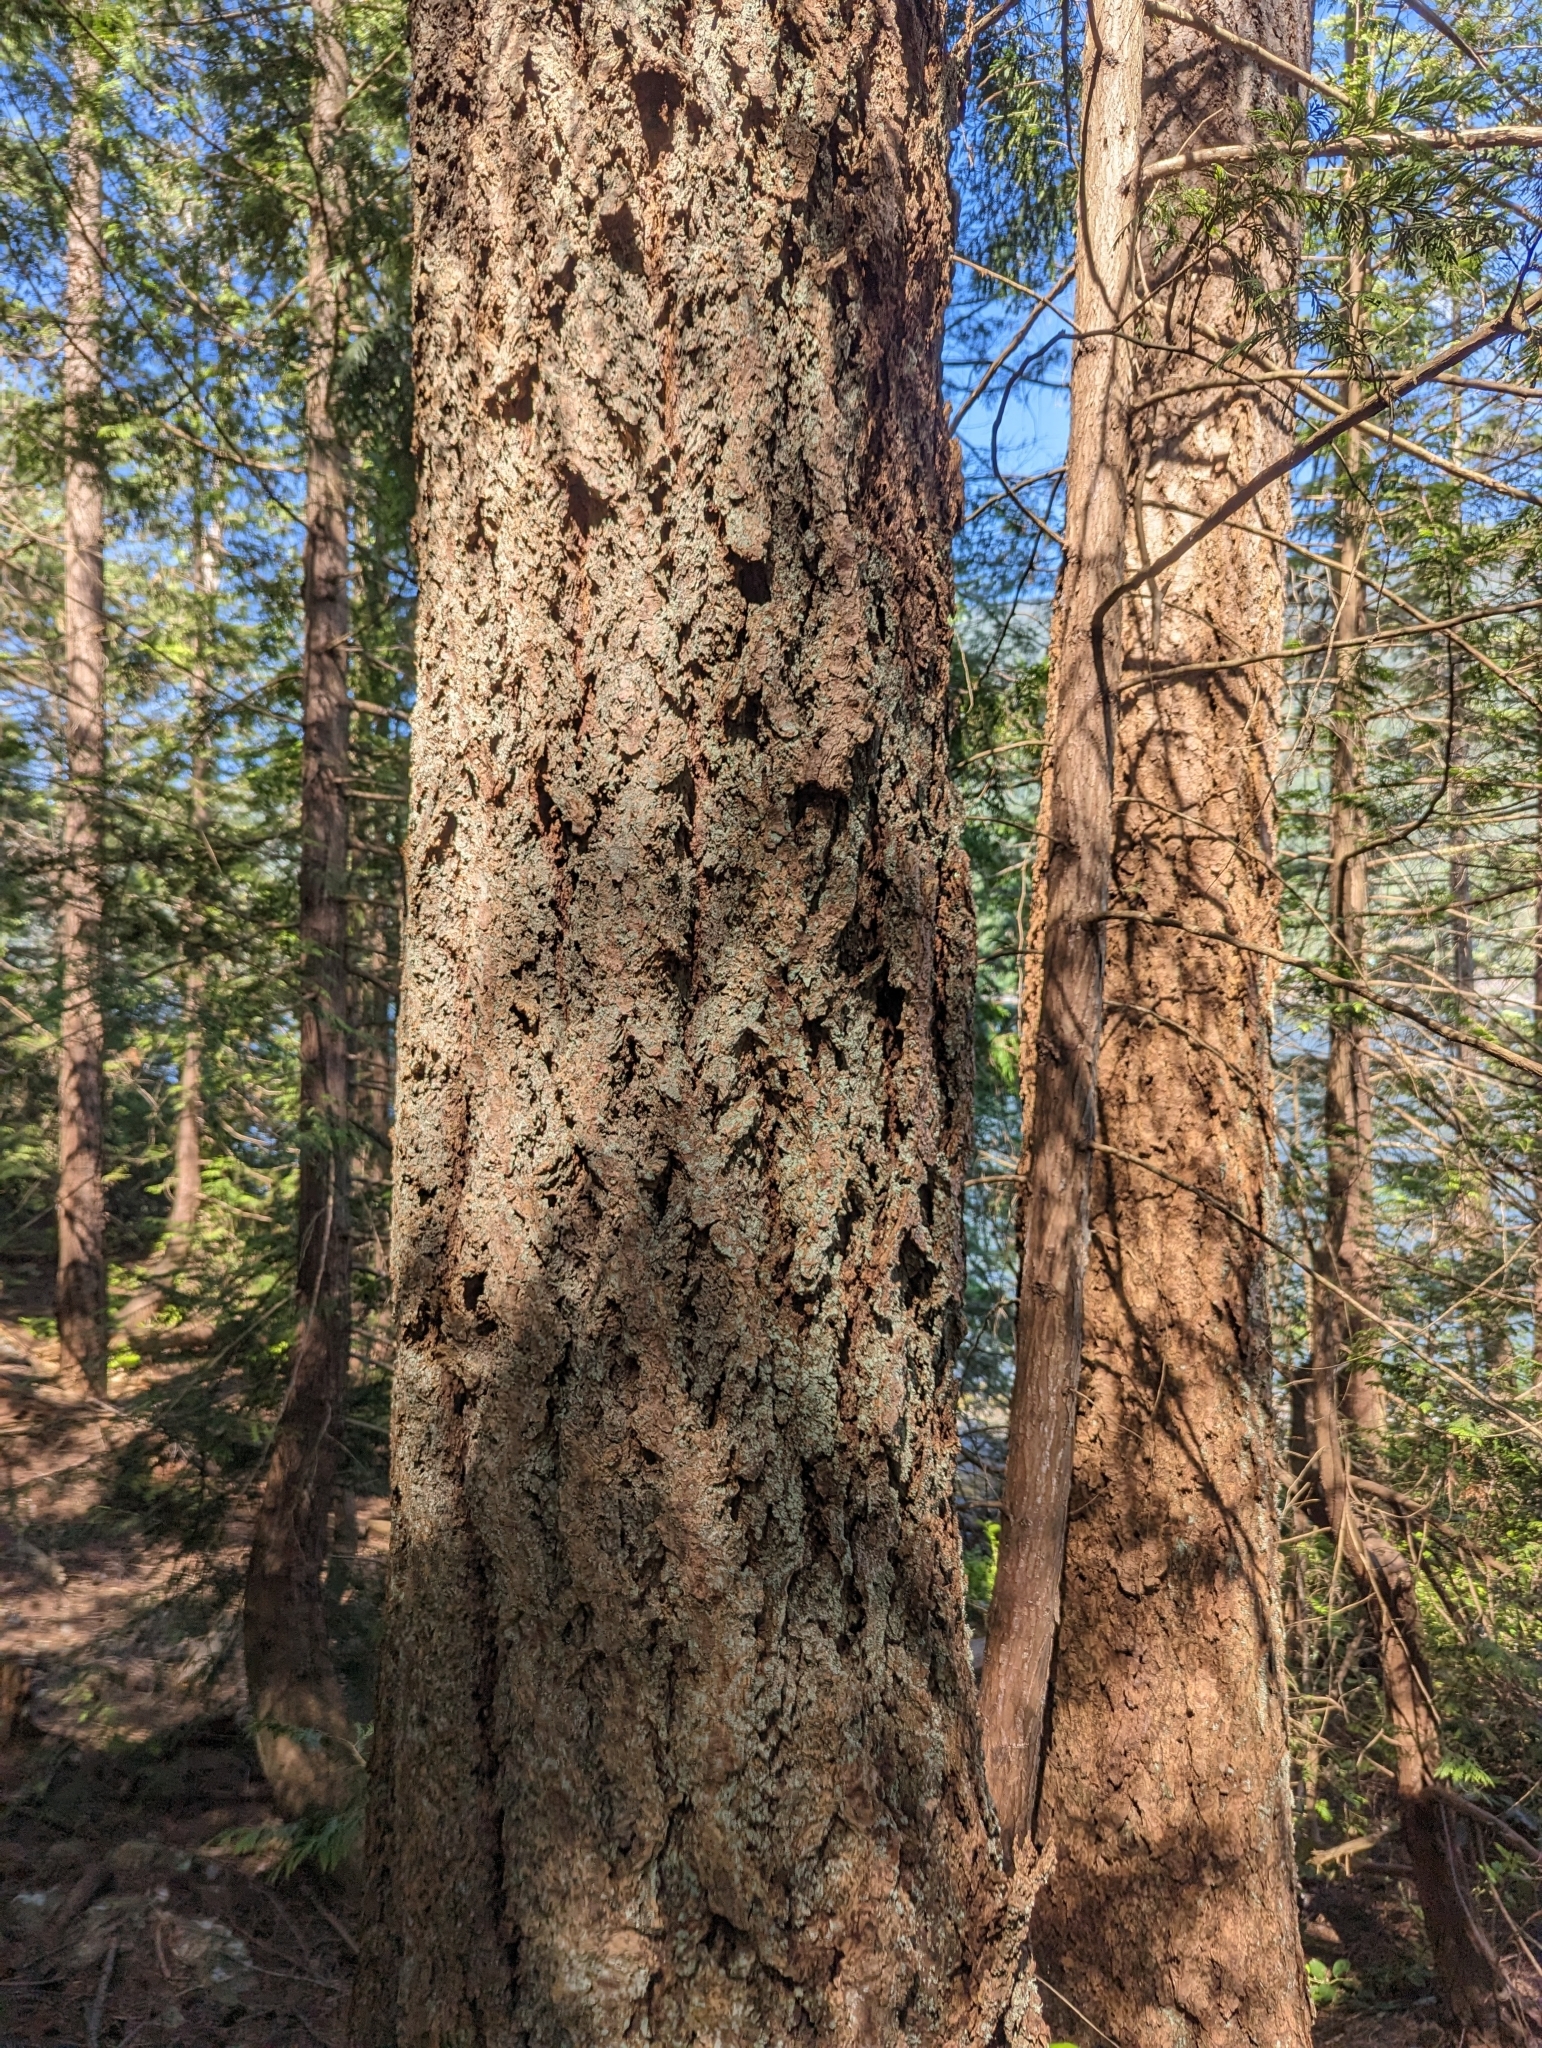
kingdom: Plantae
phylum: Tracheophyta
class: Pinopsida
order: Pinales
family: Pinaceae
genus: Pseudotsuga
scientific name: Pseudotsuga menziesii
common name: Douglas fir
